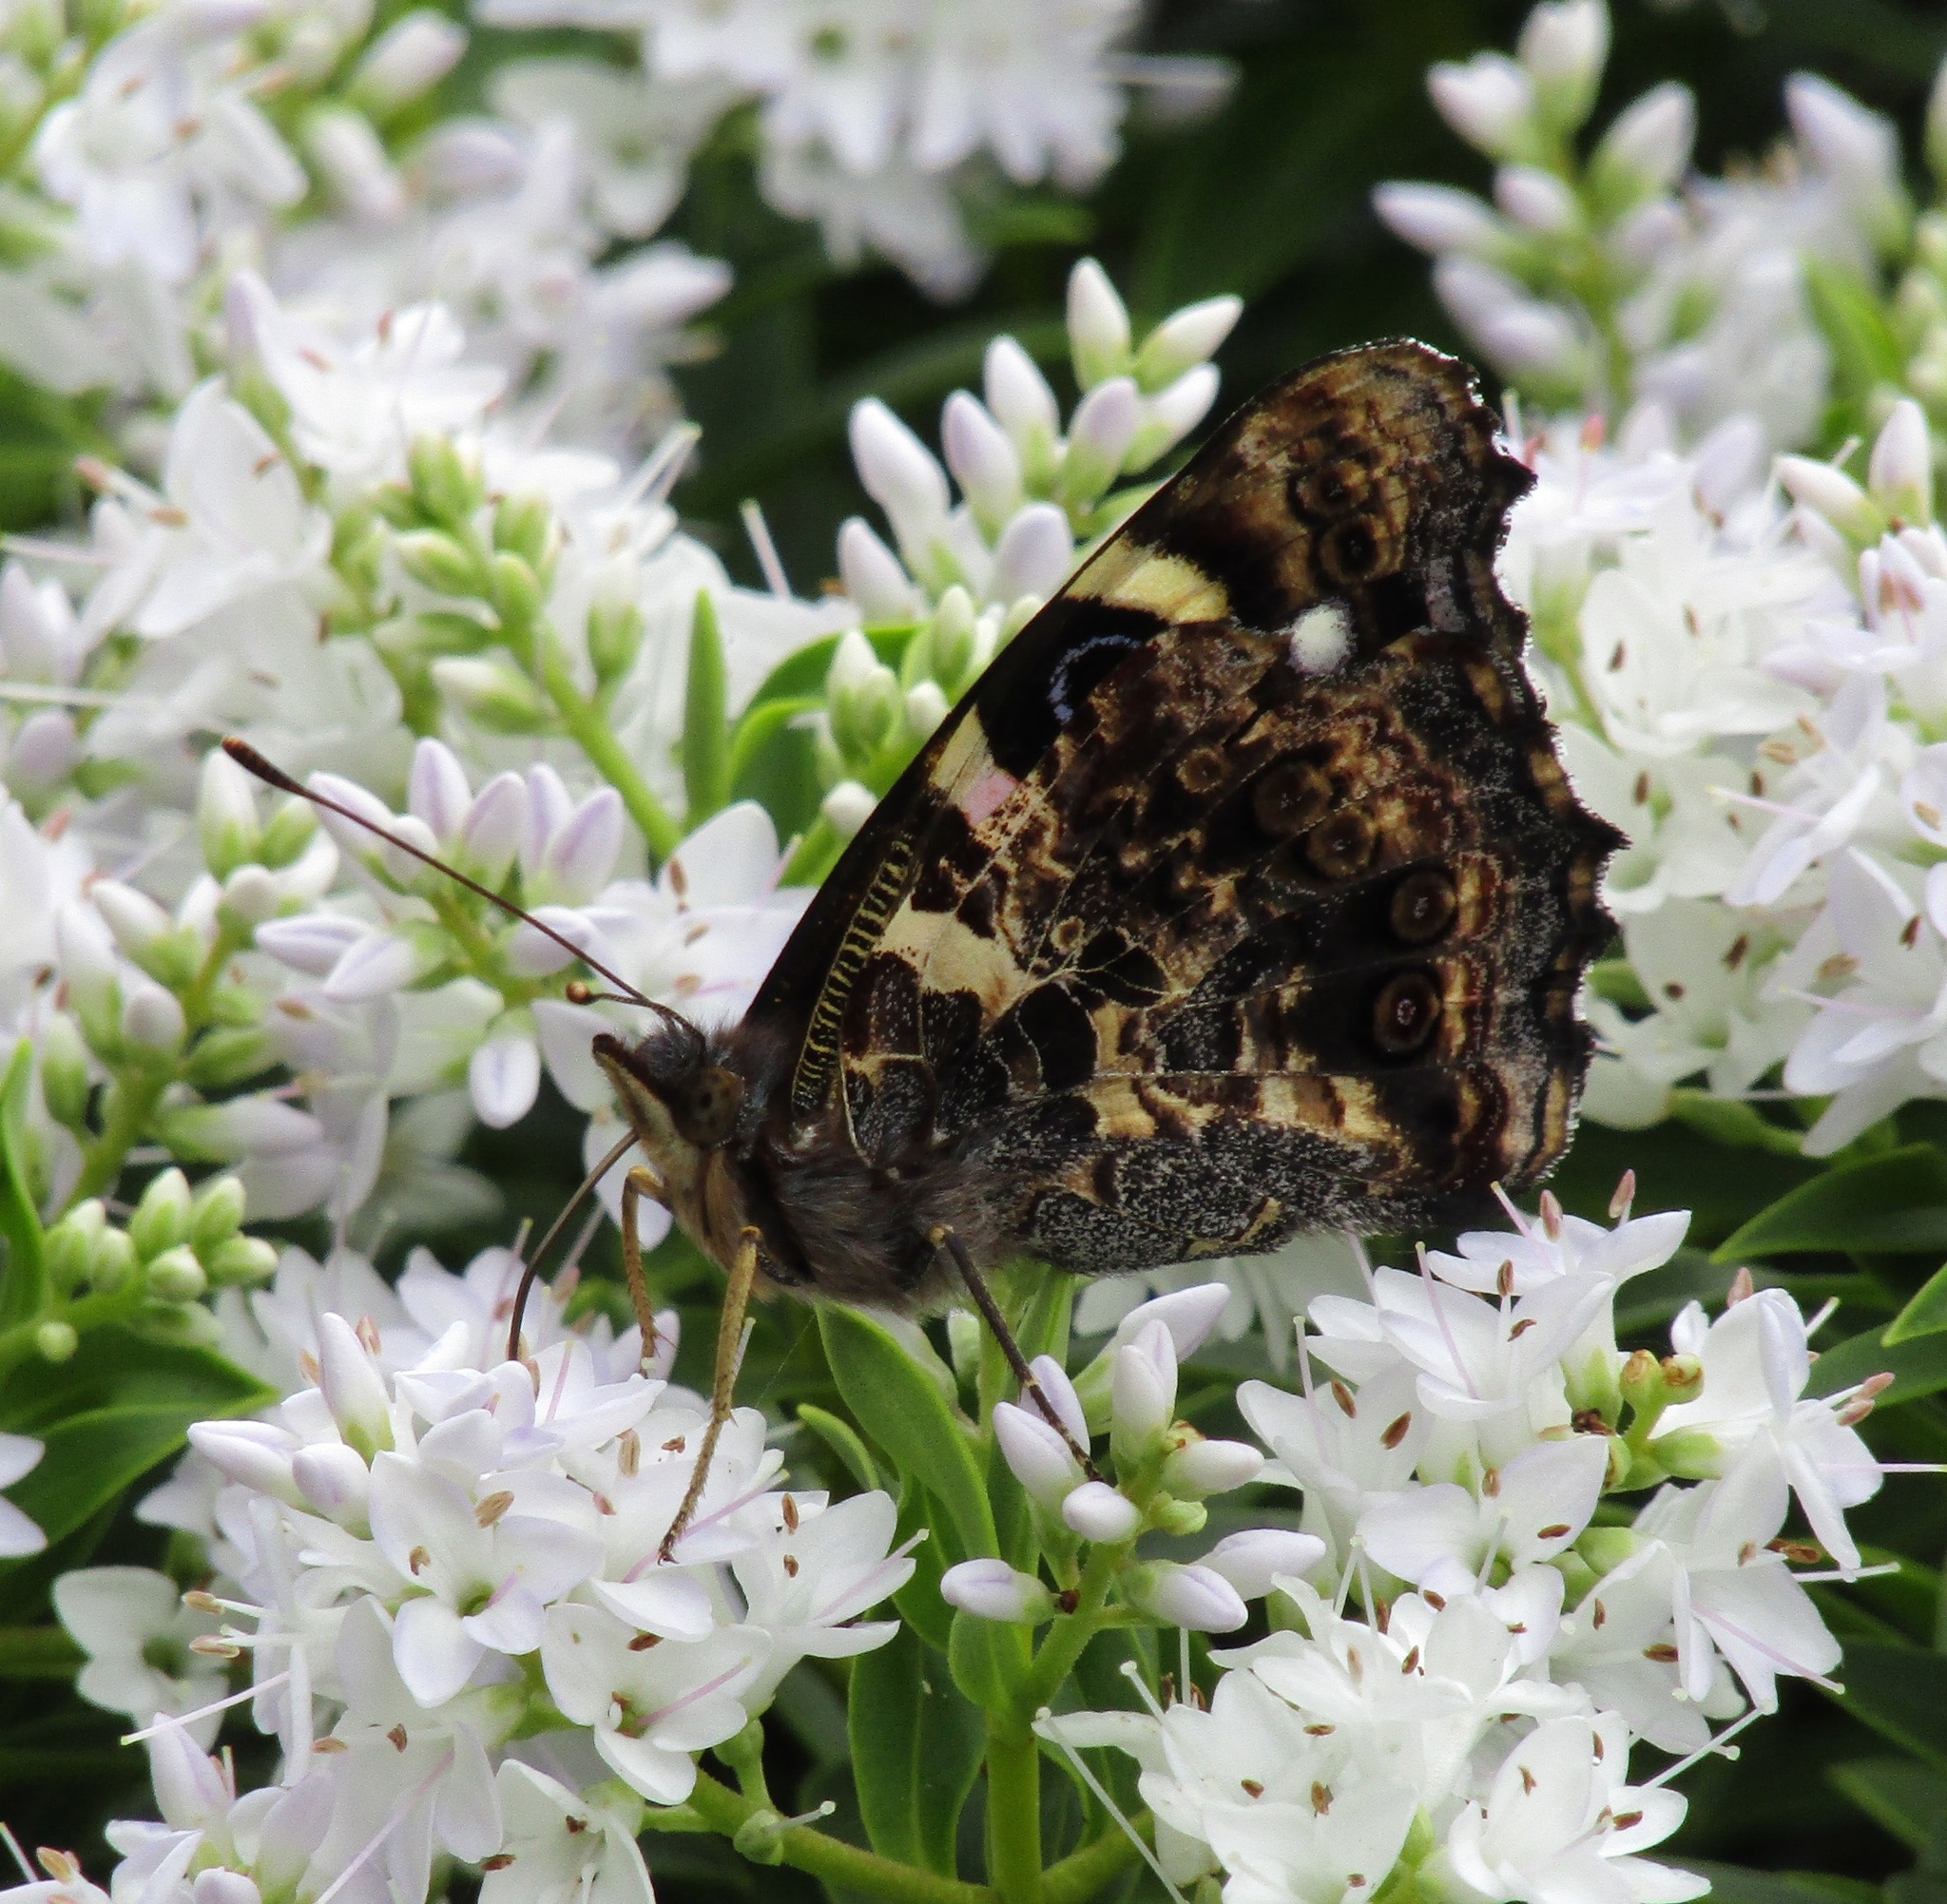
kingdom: Animalia
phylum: Arthropoda
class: Insecta
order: Lepidoptera
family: Nymphalidae
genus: Vanessa
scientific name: Vanessa gonerilla
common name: New zealand red admiral
